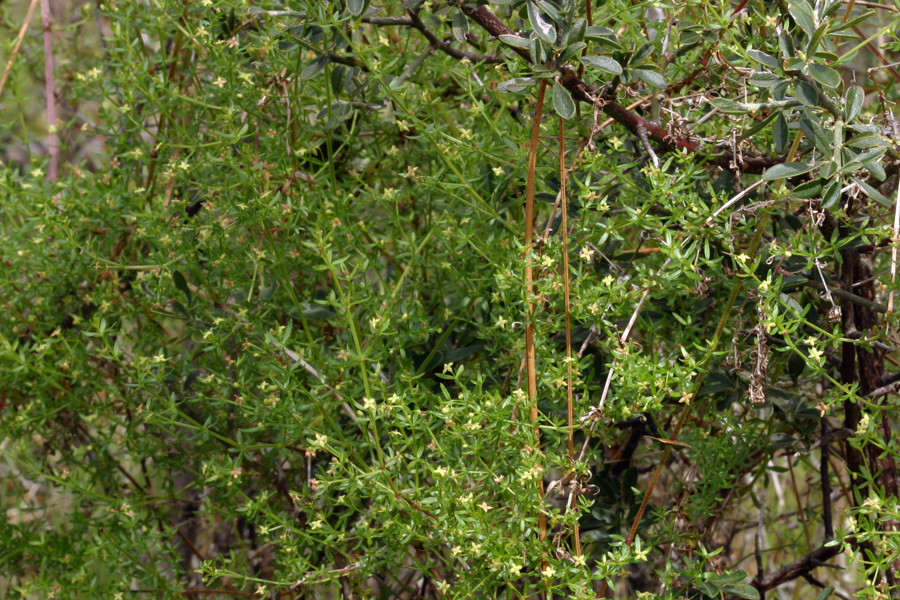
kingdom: Plantae
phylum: Tracheophyta
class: Magnoliopsida
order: Gentianales
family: Rubiaceae
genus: Galium
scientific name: Galium porrigens
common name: Climbing bedstraw
